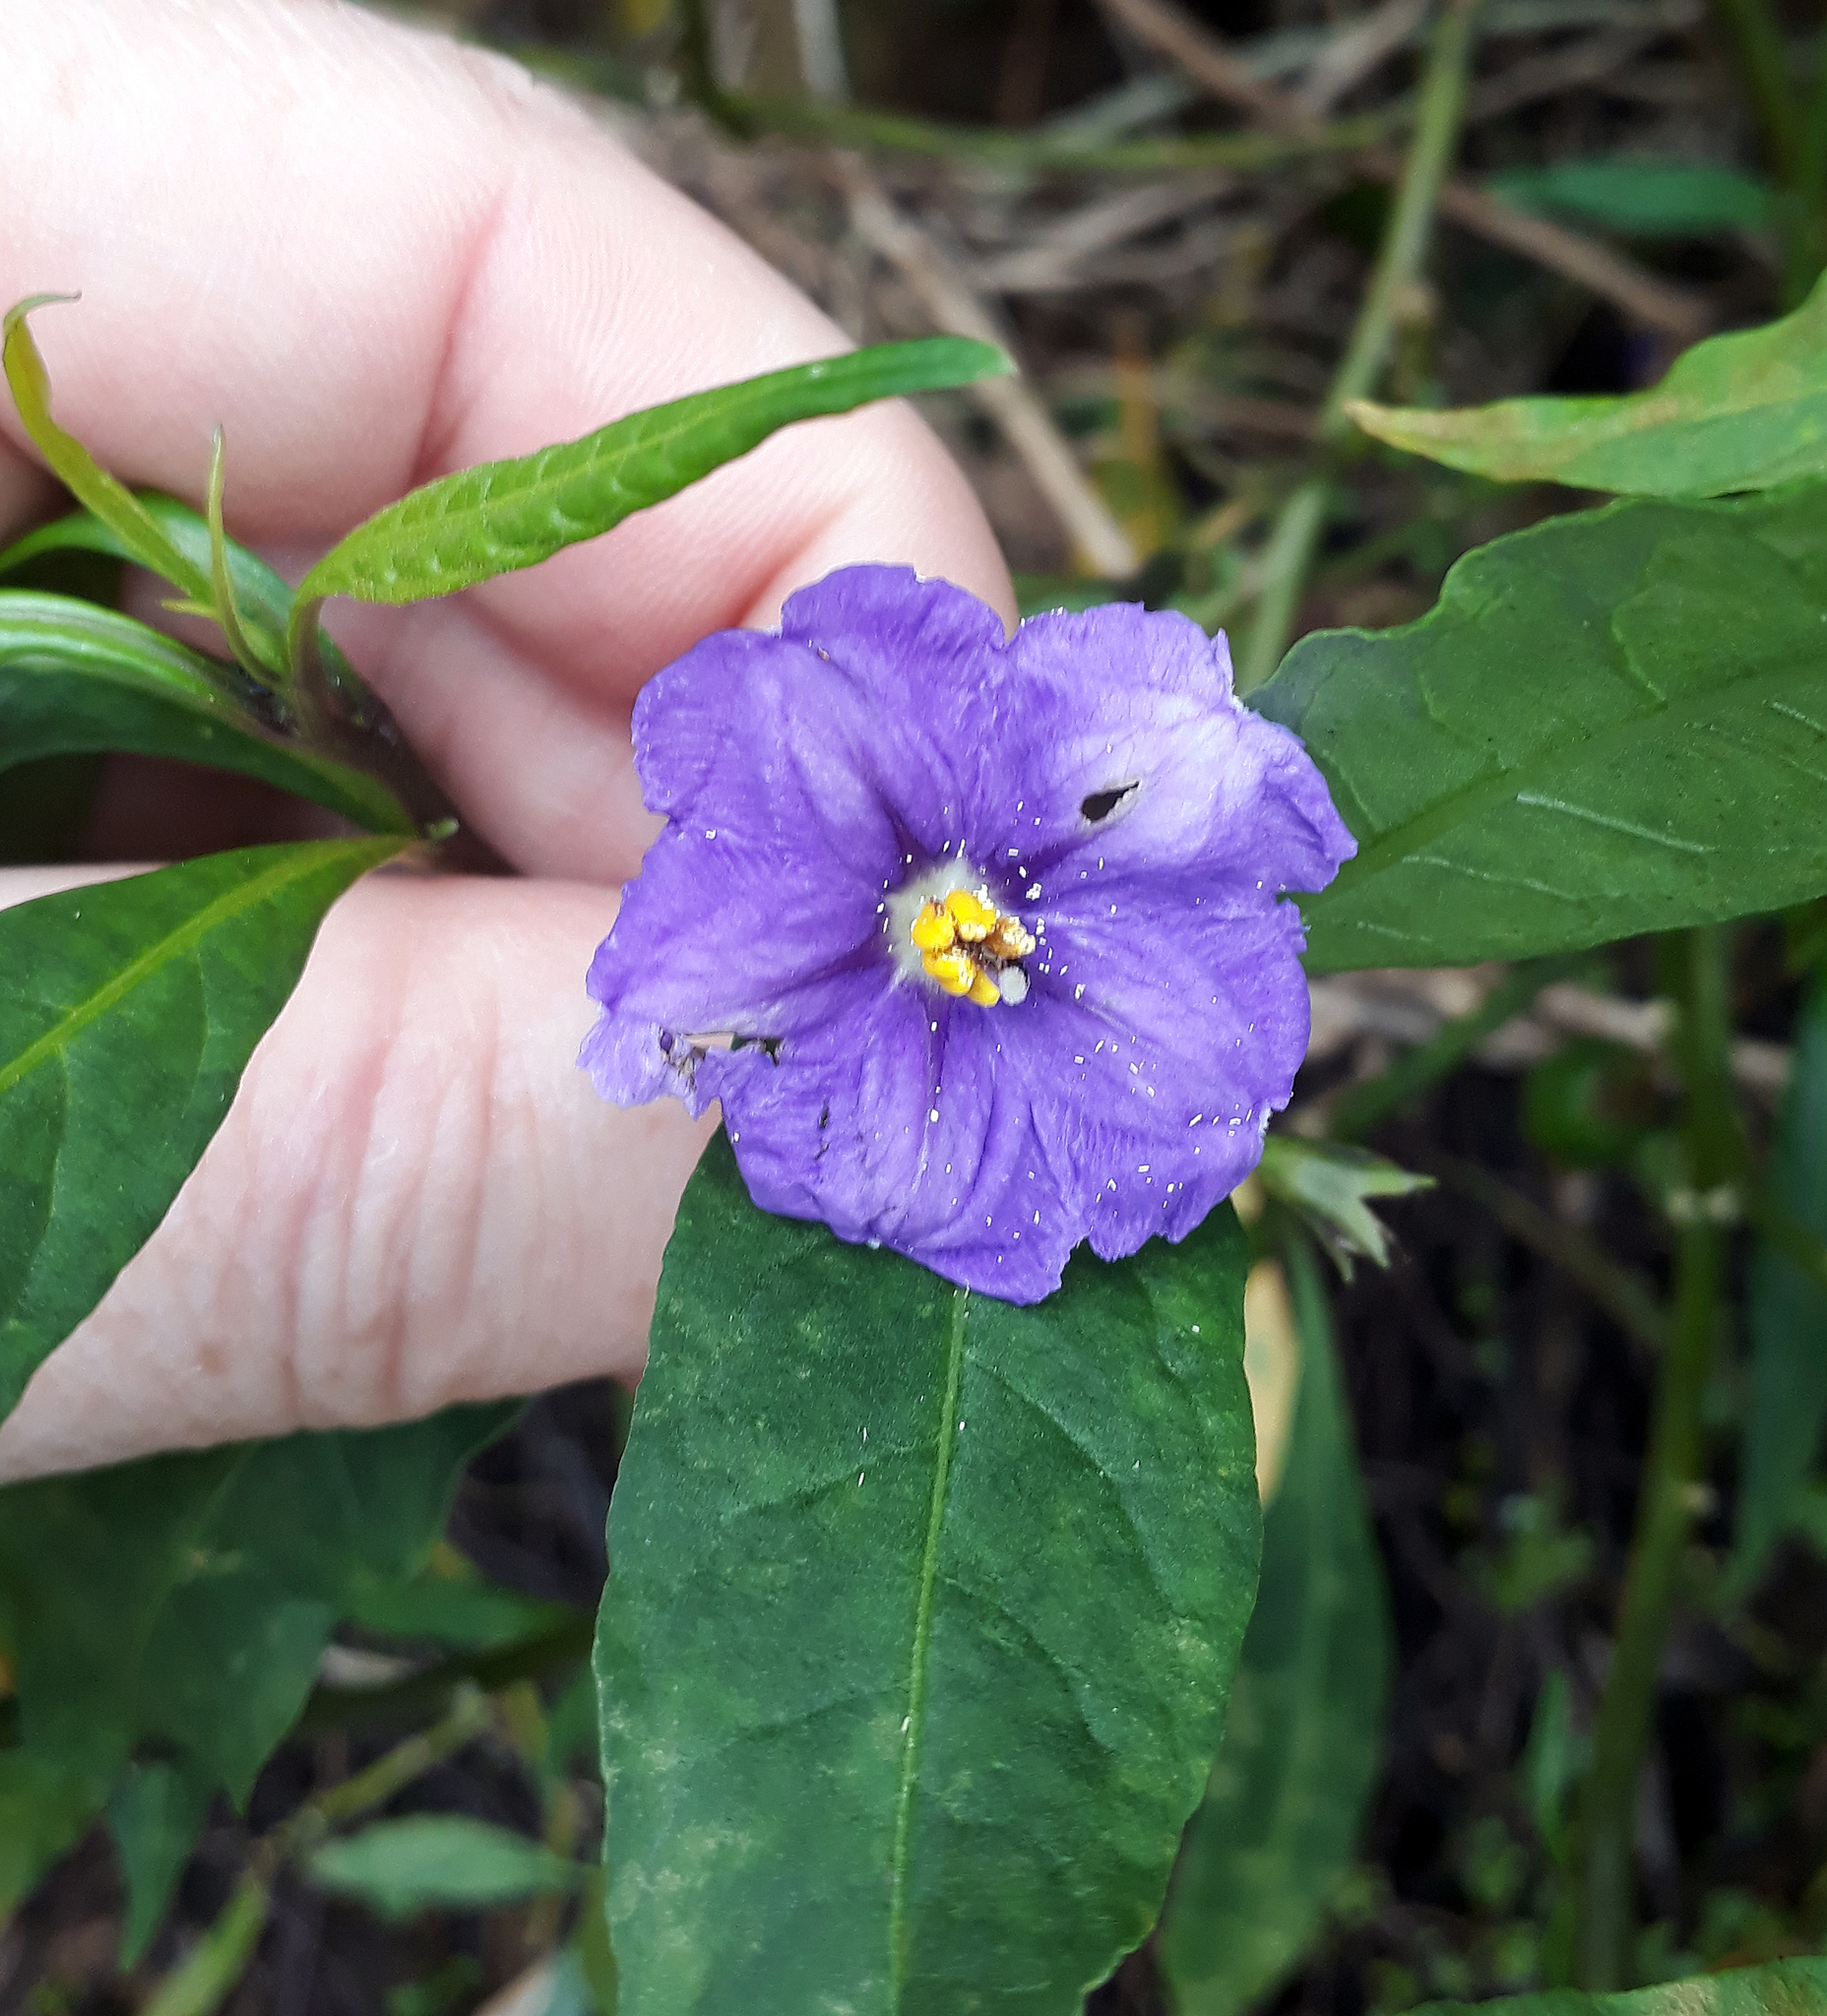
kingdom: Plantae
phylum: Tracheophyta
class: Magnoliopsida
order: Solanales
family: Solanaceae
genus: Solanum
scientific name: Solanum laciniatum
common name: Kangaroo-apple
